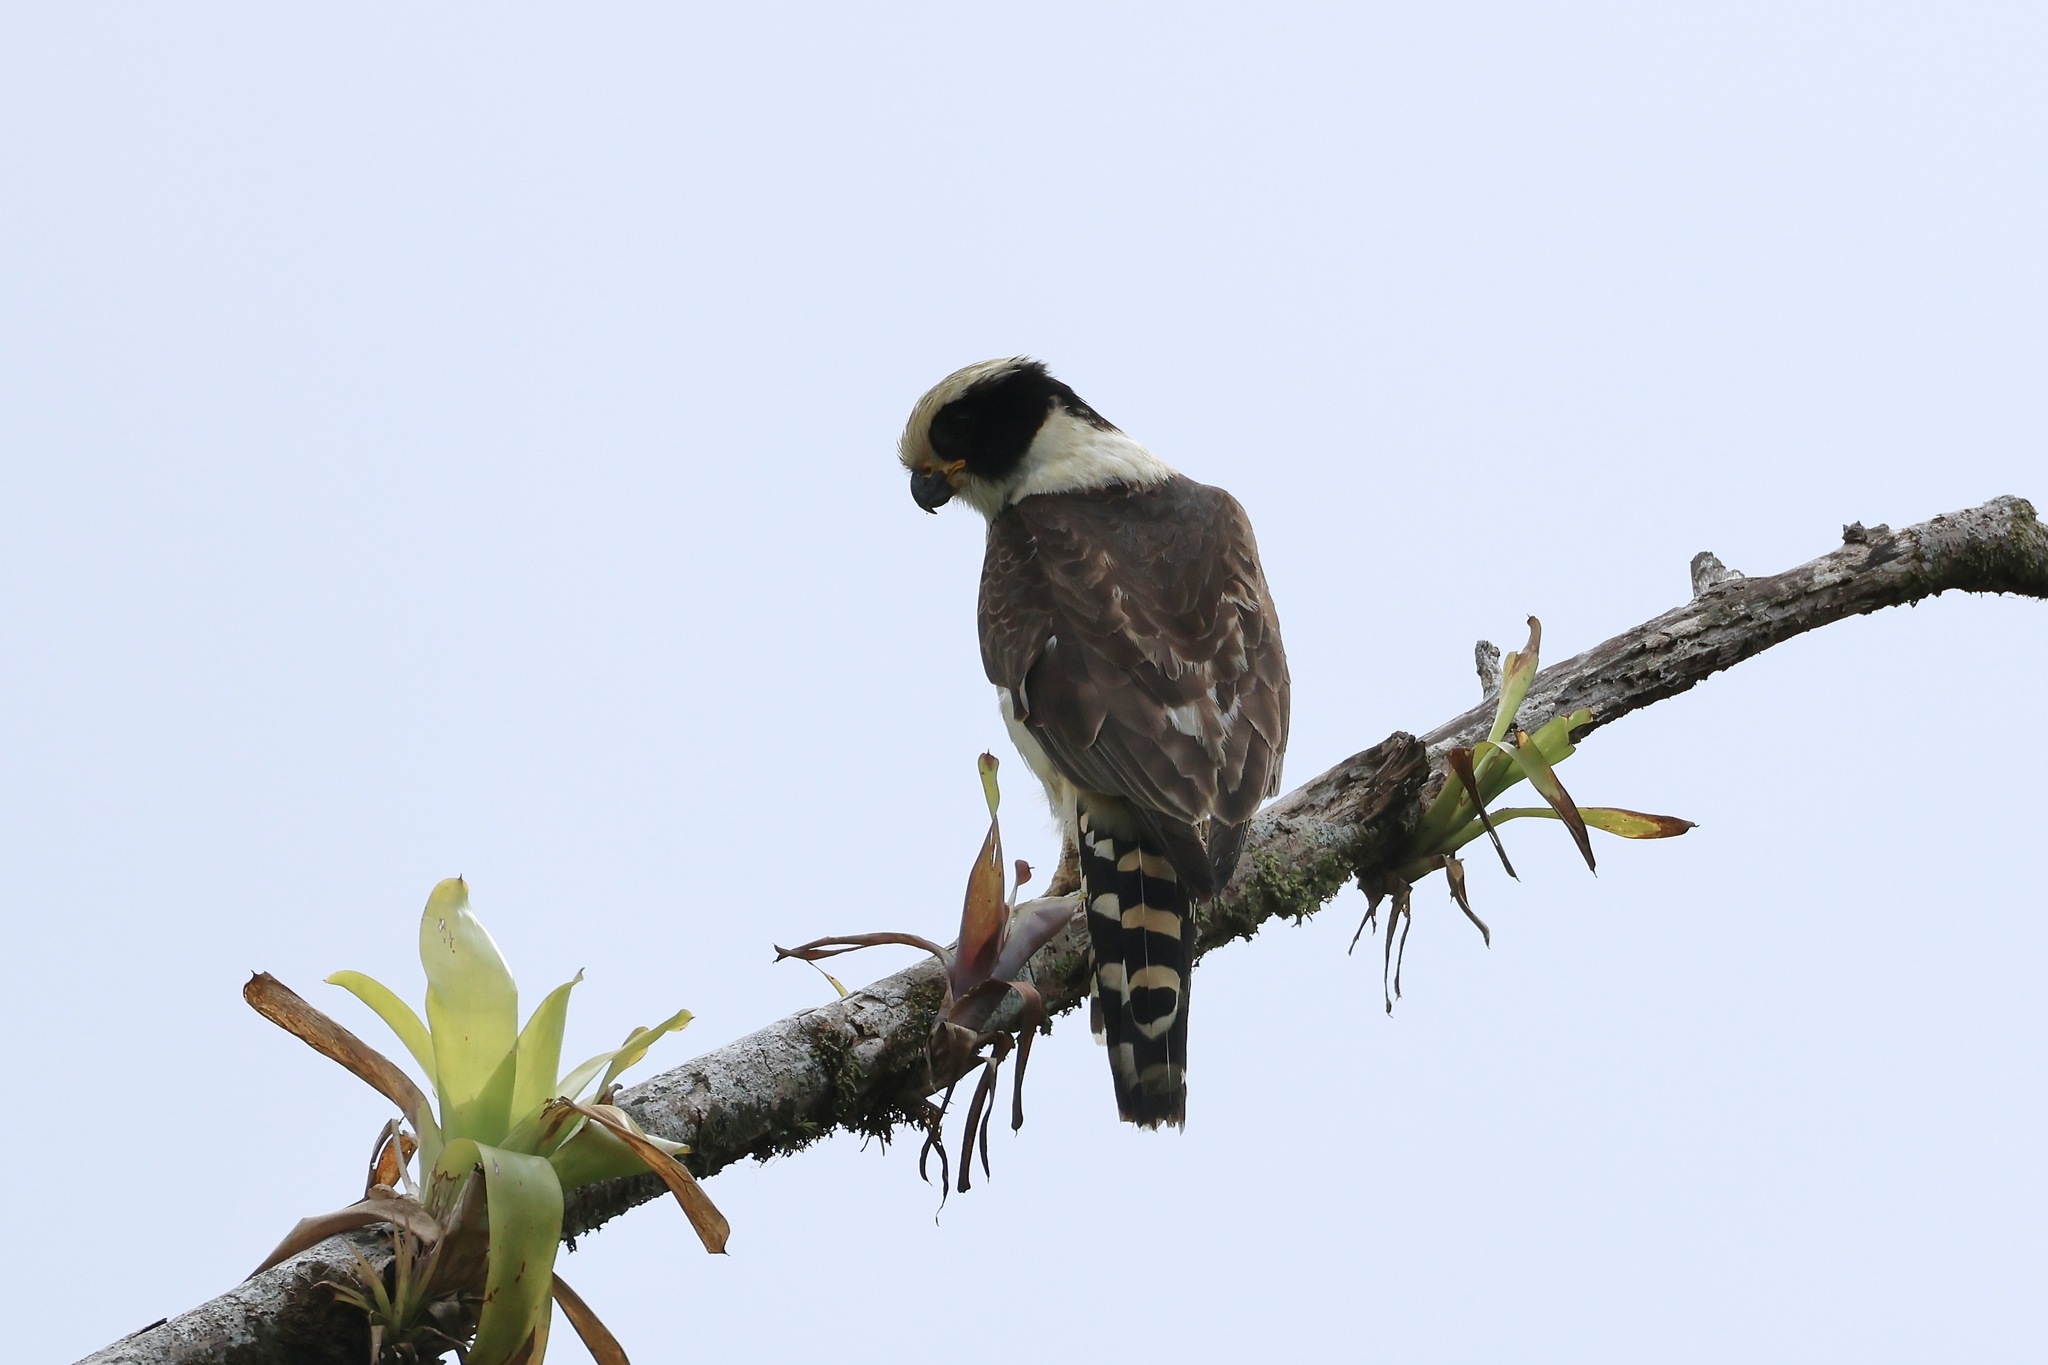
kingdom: Animalia
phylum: Chordata
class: Aves
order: Falconiformes
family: Falconidae
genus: Herpetotheres
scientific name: Herpetotheres cachinnans
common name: Laughing falcon
